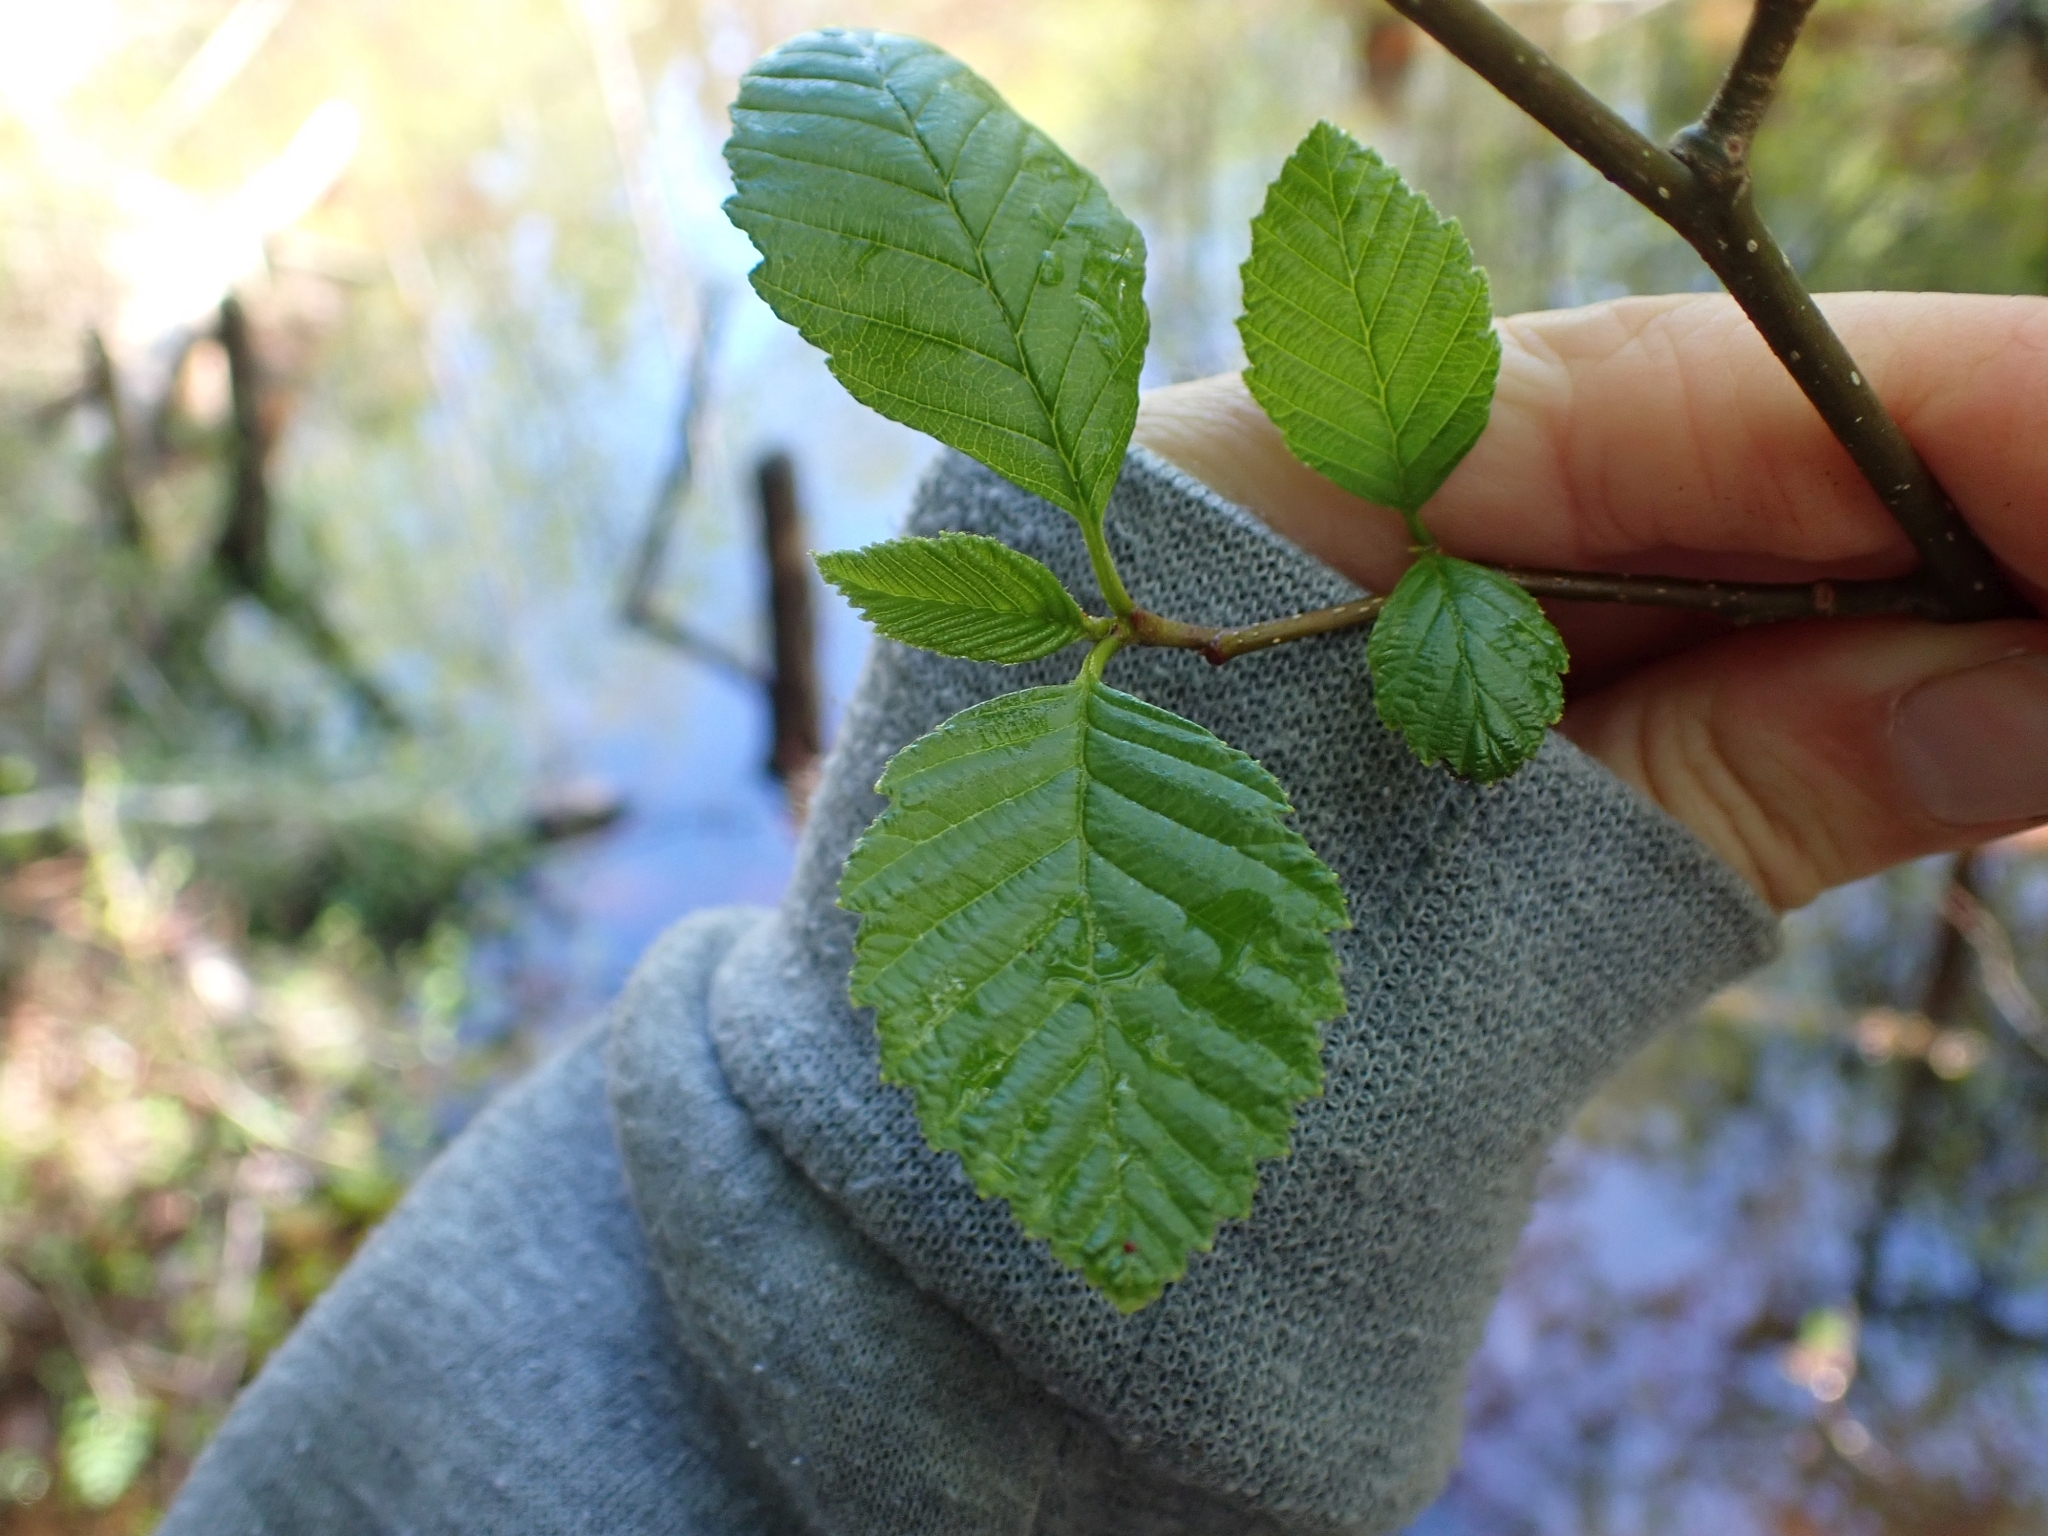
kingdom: Plantae
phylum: Tracheophyta
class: Magnoliopsida
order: Fagales
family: Betulaceae
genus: Alnus
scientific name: Alnus rubra
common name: Red alder
